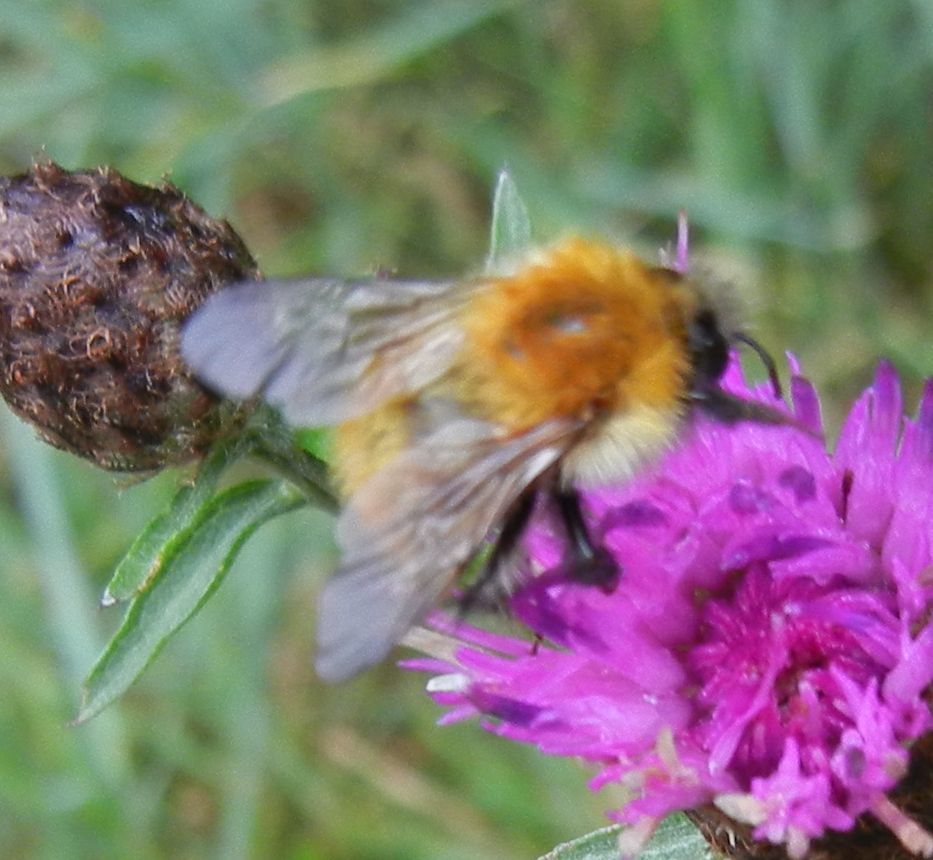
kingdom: Animalia
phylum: Arthropoda
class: Insecta
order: Hymenoptera
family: Apidae
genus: Bombus
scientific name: Bombus pascuorum
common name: Common carder bee
